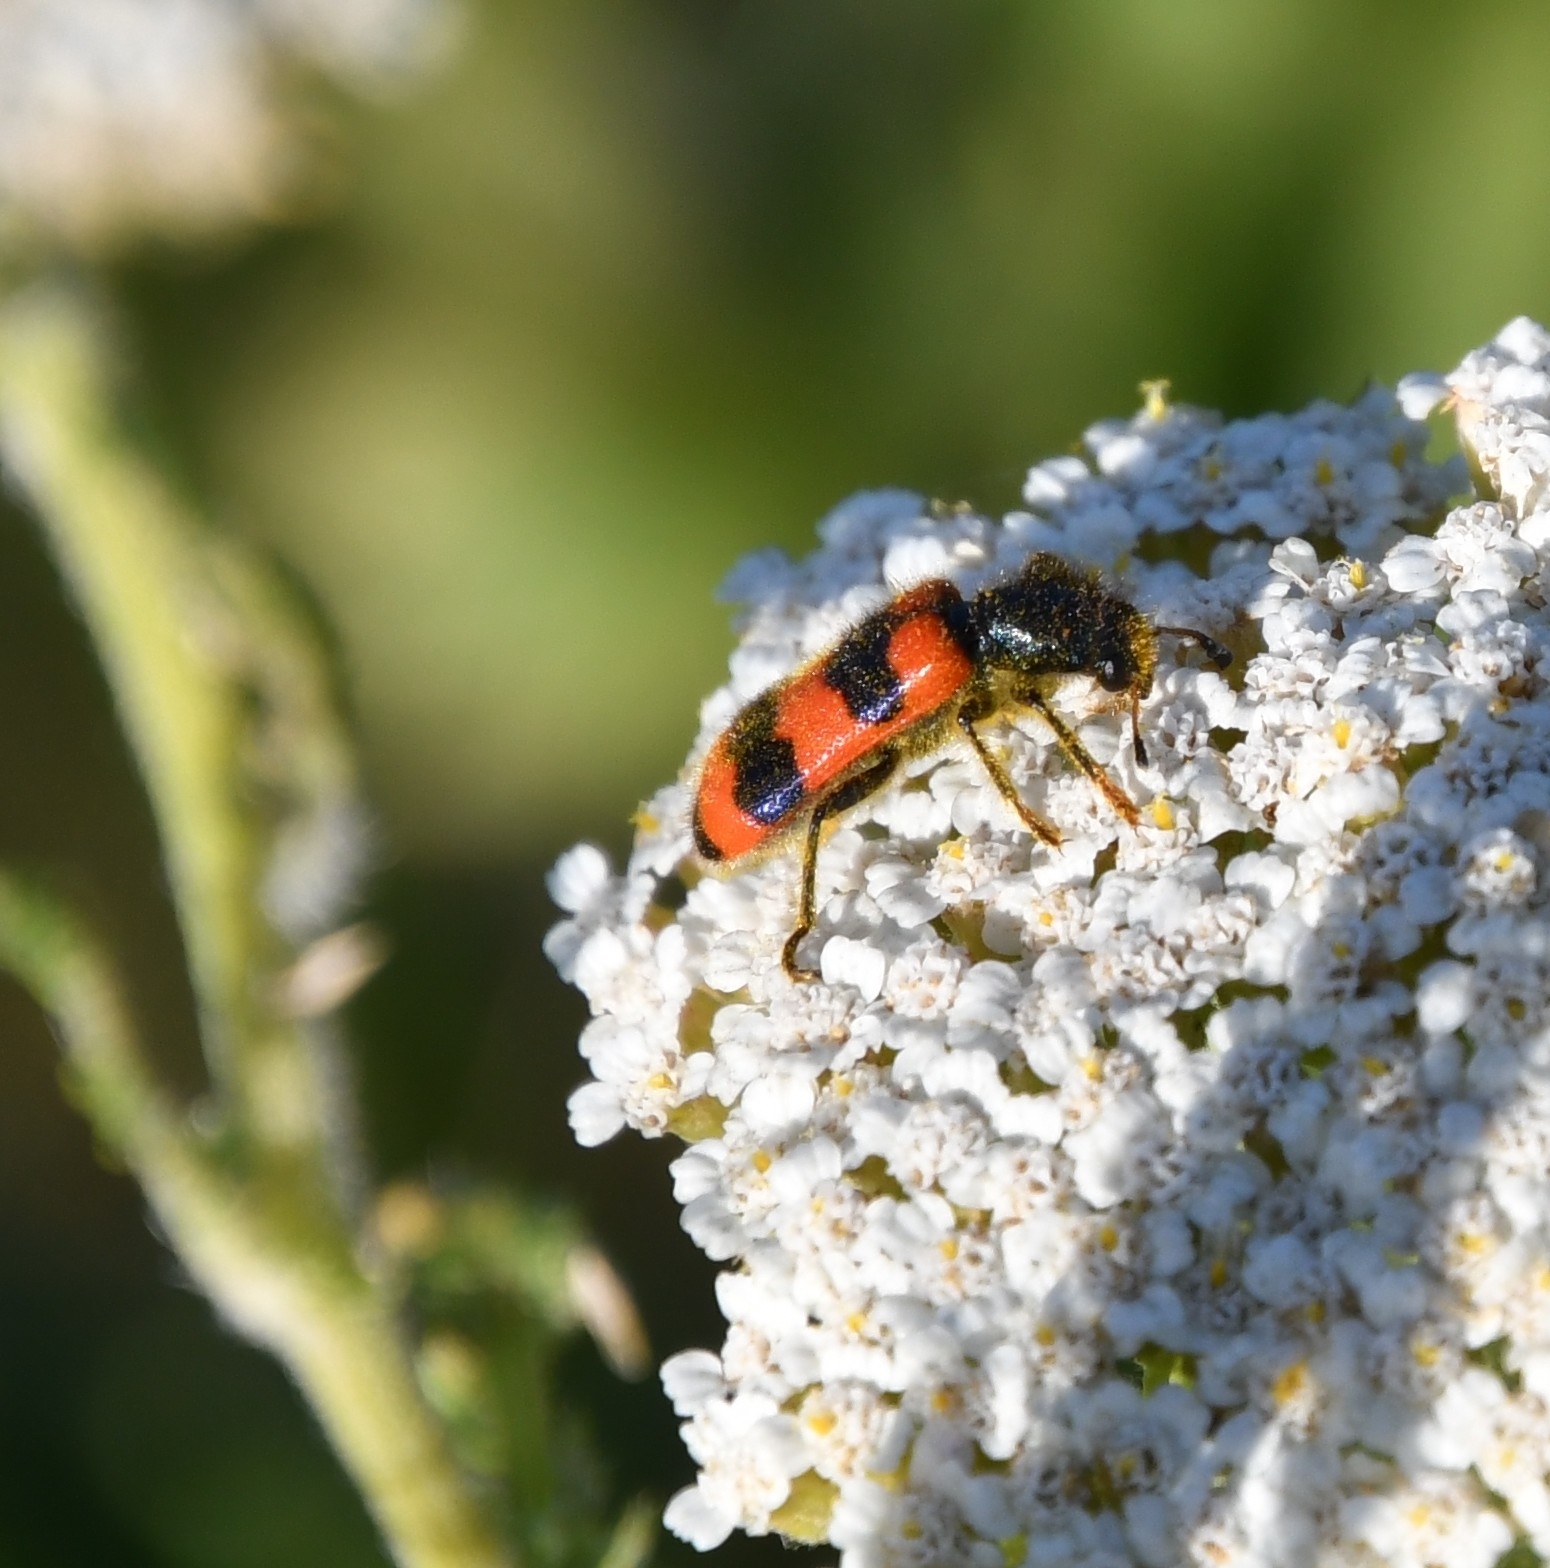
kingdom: Animalia
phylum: Arthropoda
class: Insecta
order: Coleoptera
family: Cleridae
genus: Trichodes
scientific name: Trichodes apiarius
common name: Bee-eating beetle
